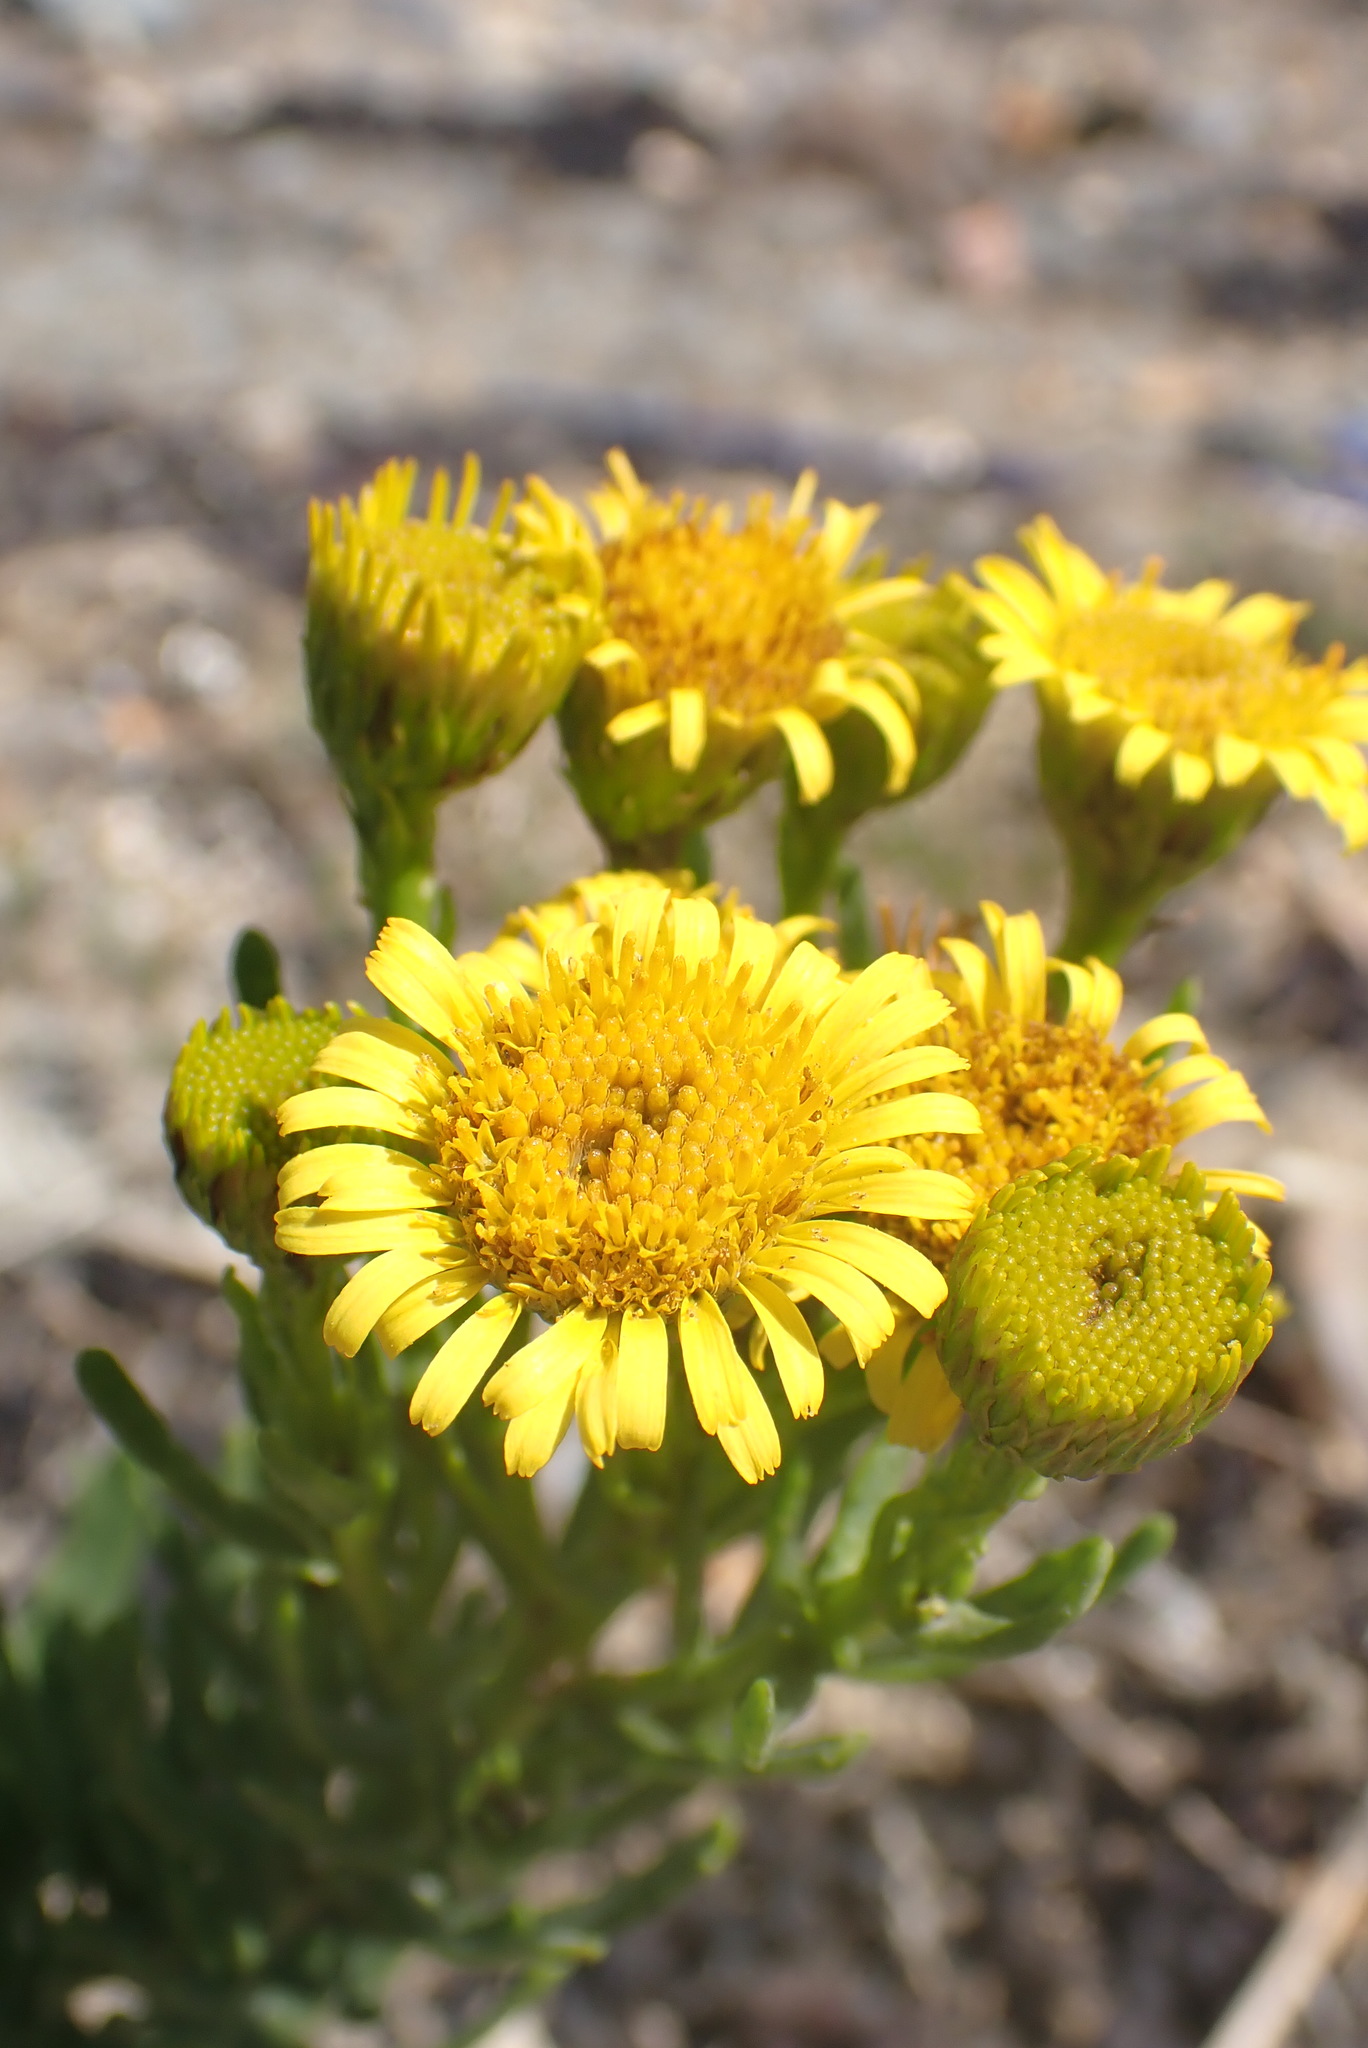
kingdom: Plantae
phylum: Tracheophyta
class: Magnoliopsida
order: Asterales
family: Asteraceae
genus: Limbarda
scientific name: Limbarda crithmoides
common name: Golden samphire
